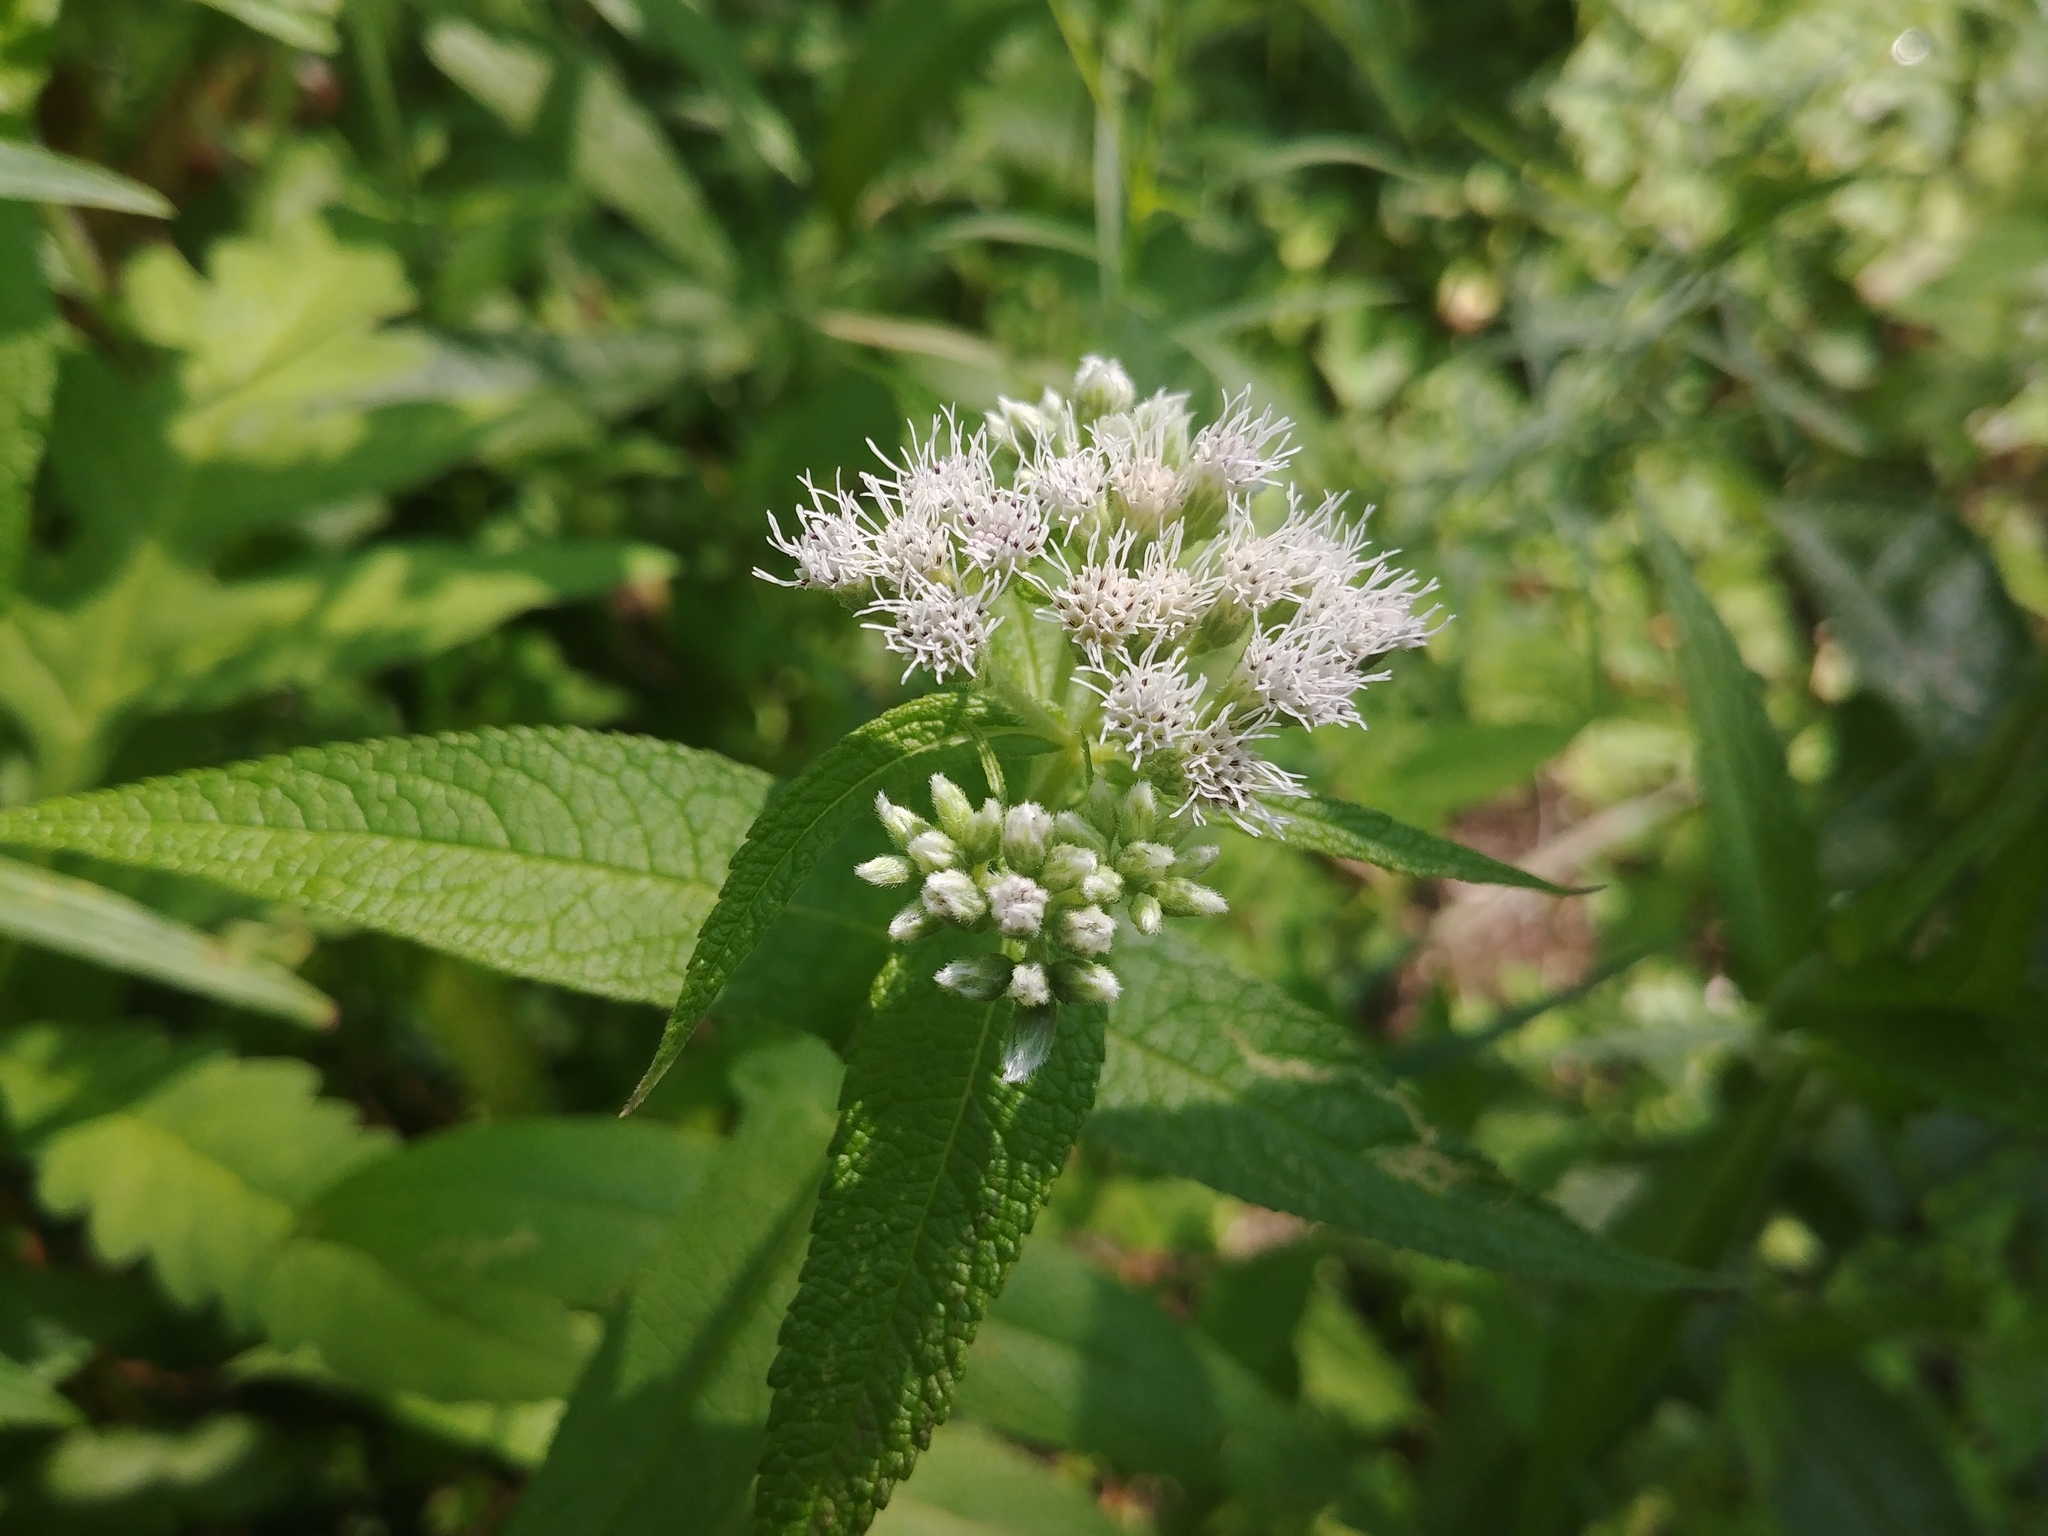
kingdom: Plantae
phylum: Tracheophyta
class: Magnoliopsida
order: Asterales
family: Asteraceae
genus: Eupatorium
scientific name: Eupatorium perfoliatum
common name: Boneset
